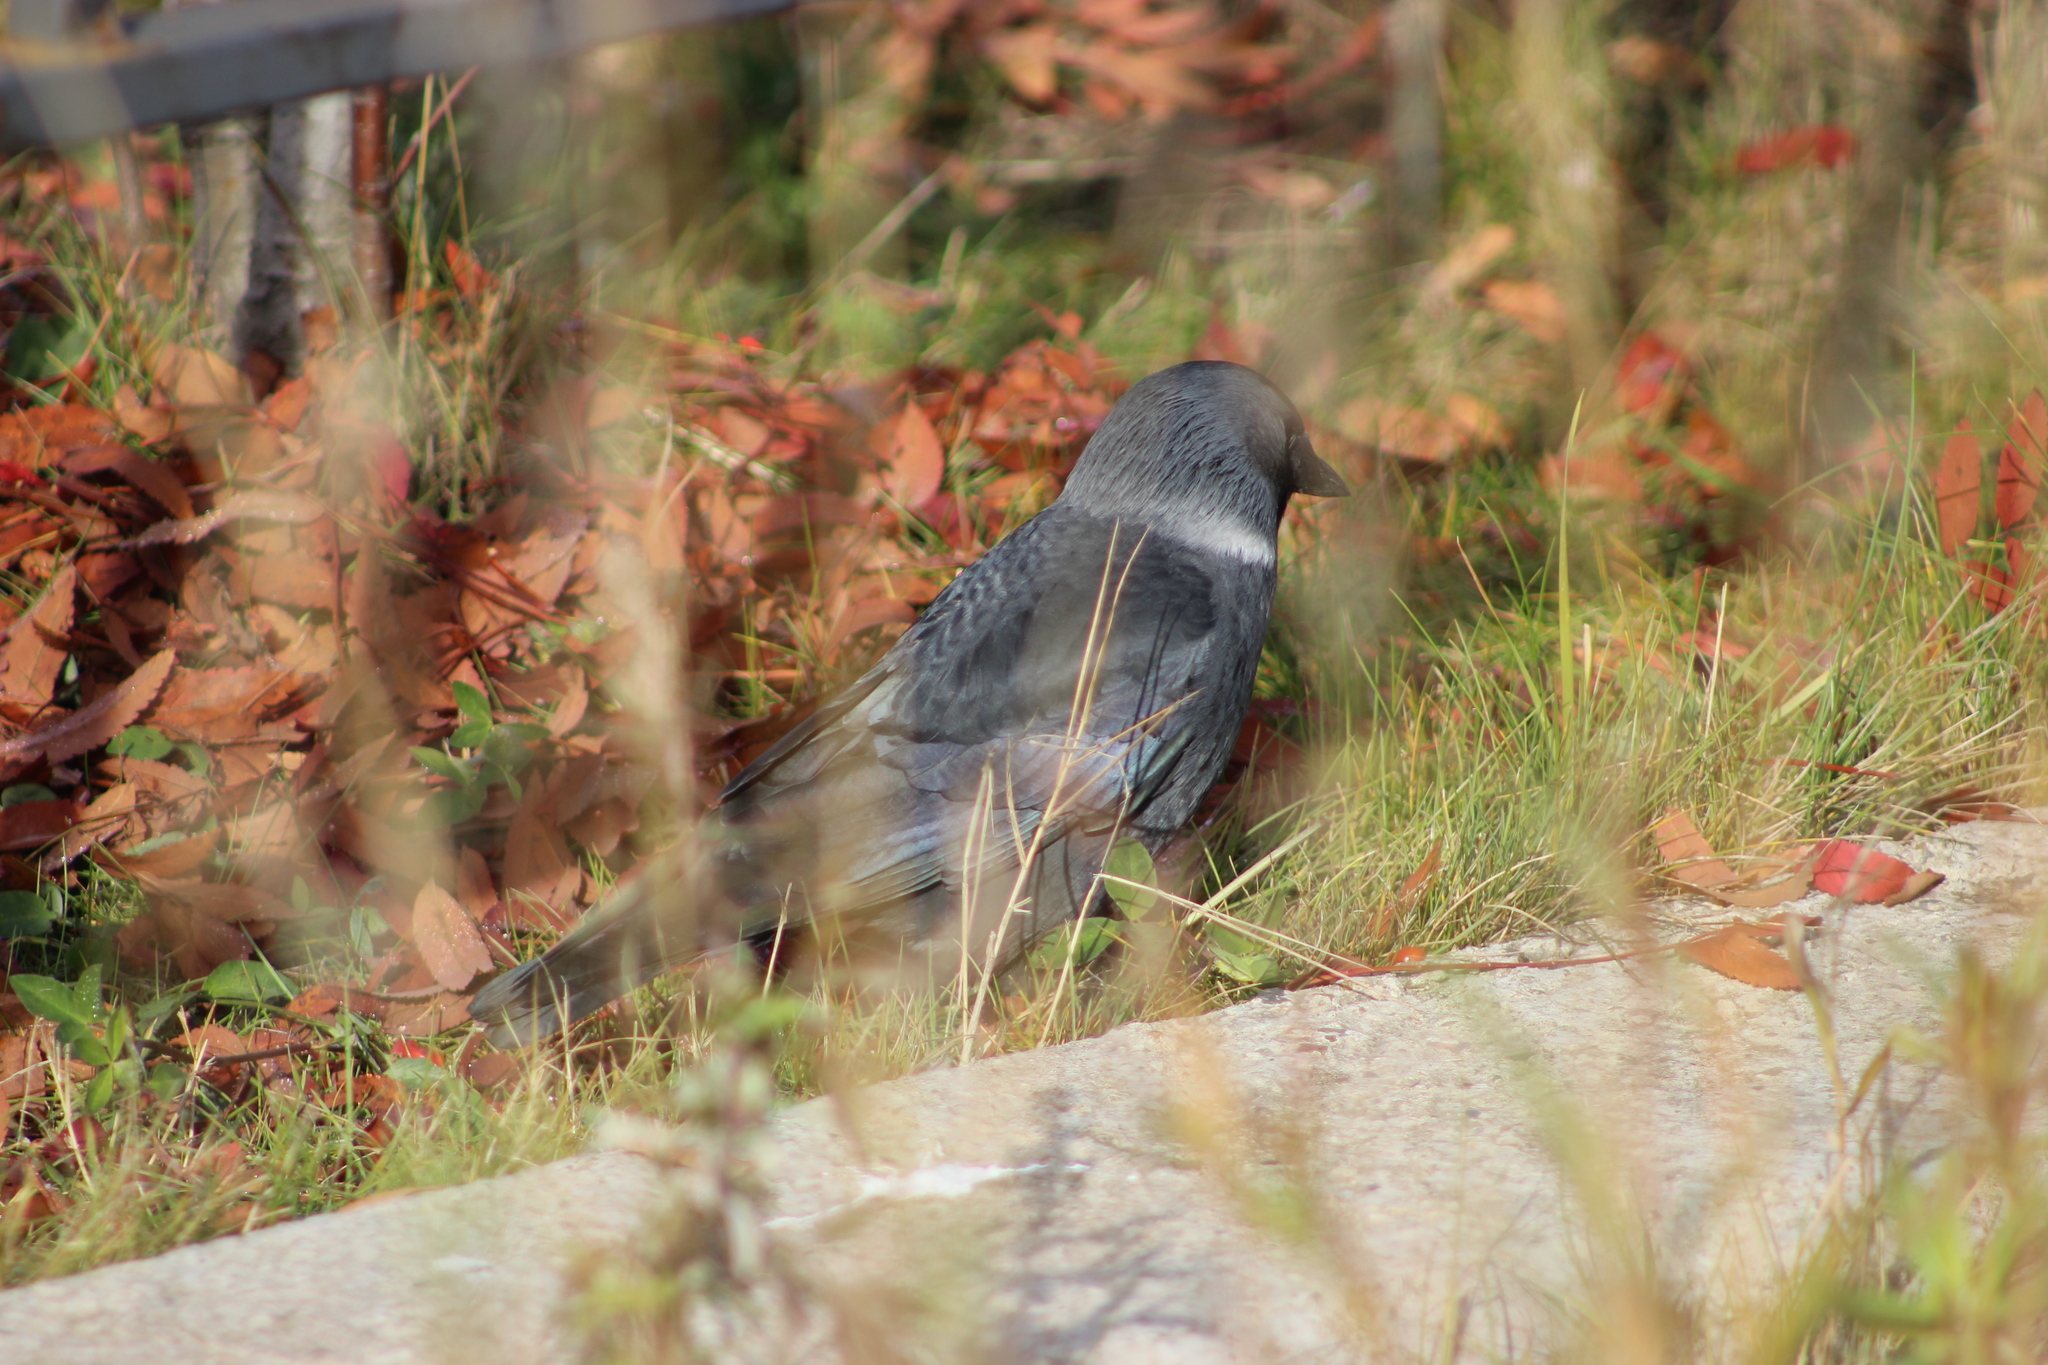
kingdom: Animalia
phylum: Chordata
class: Aves
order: Passeriformes
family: Corvidae
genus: Coloeus
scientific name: Coloeus monedula
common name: Western jackdaw
